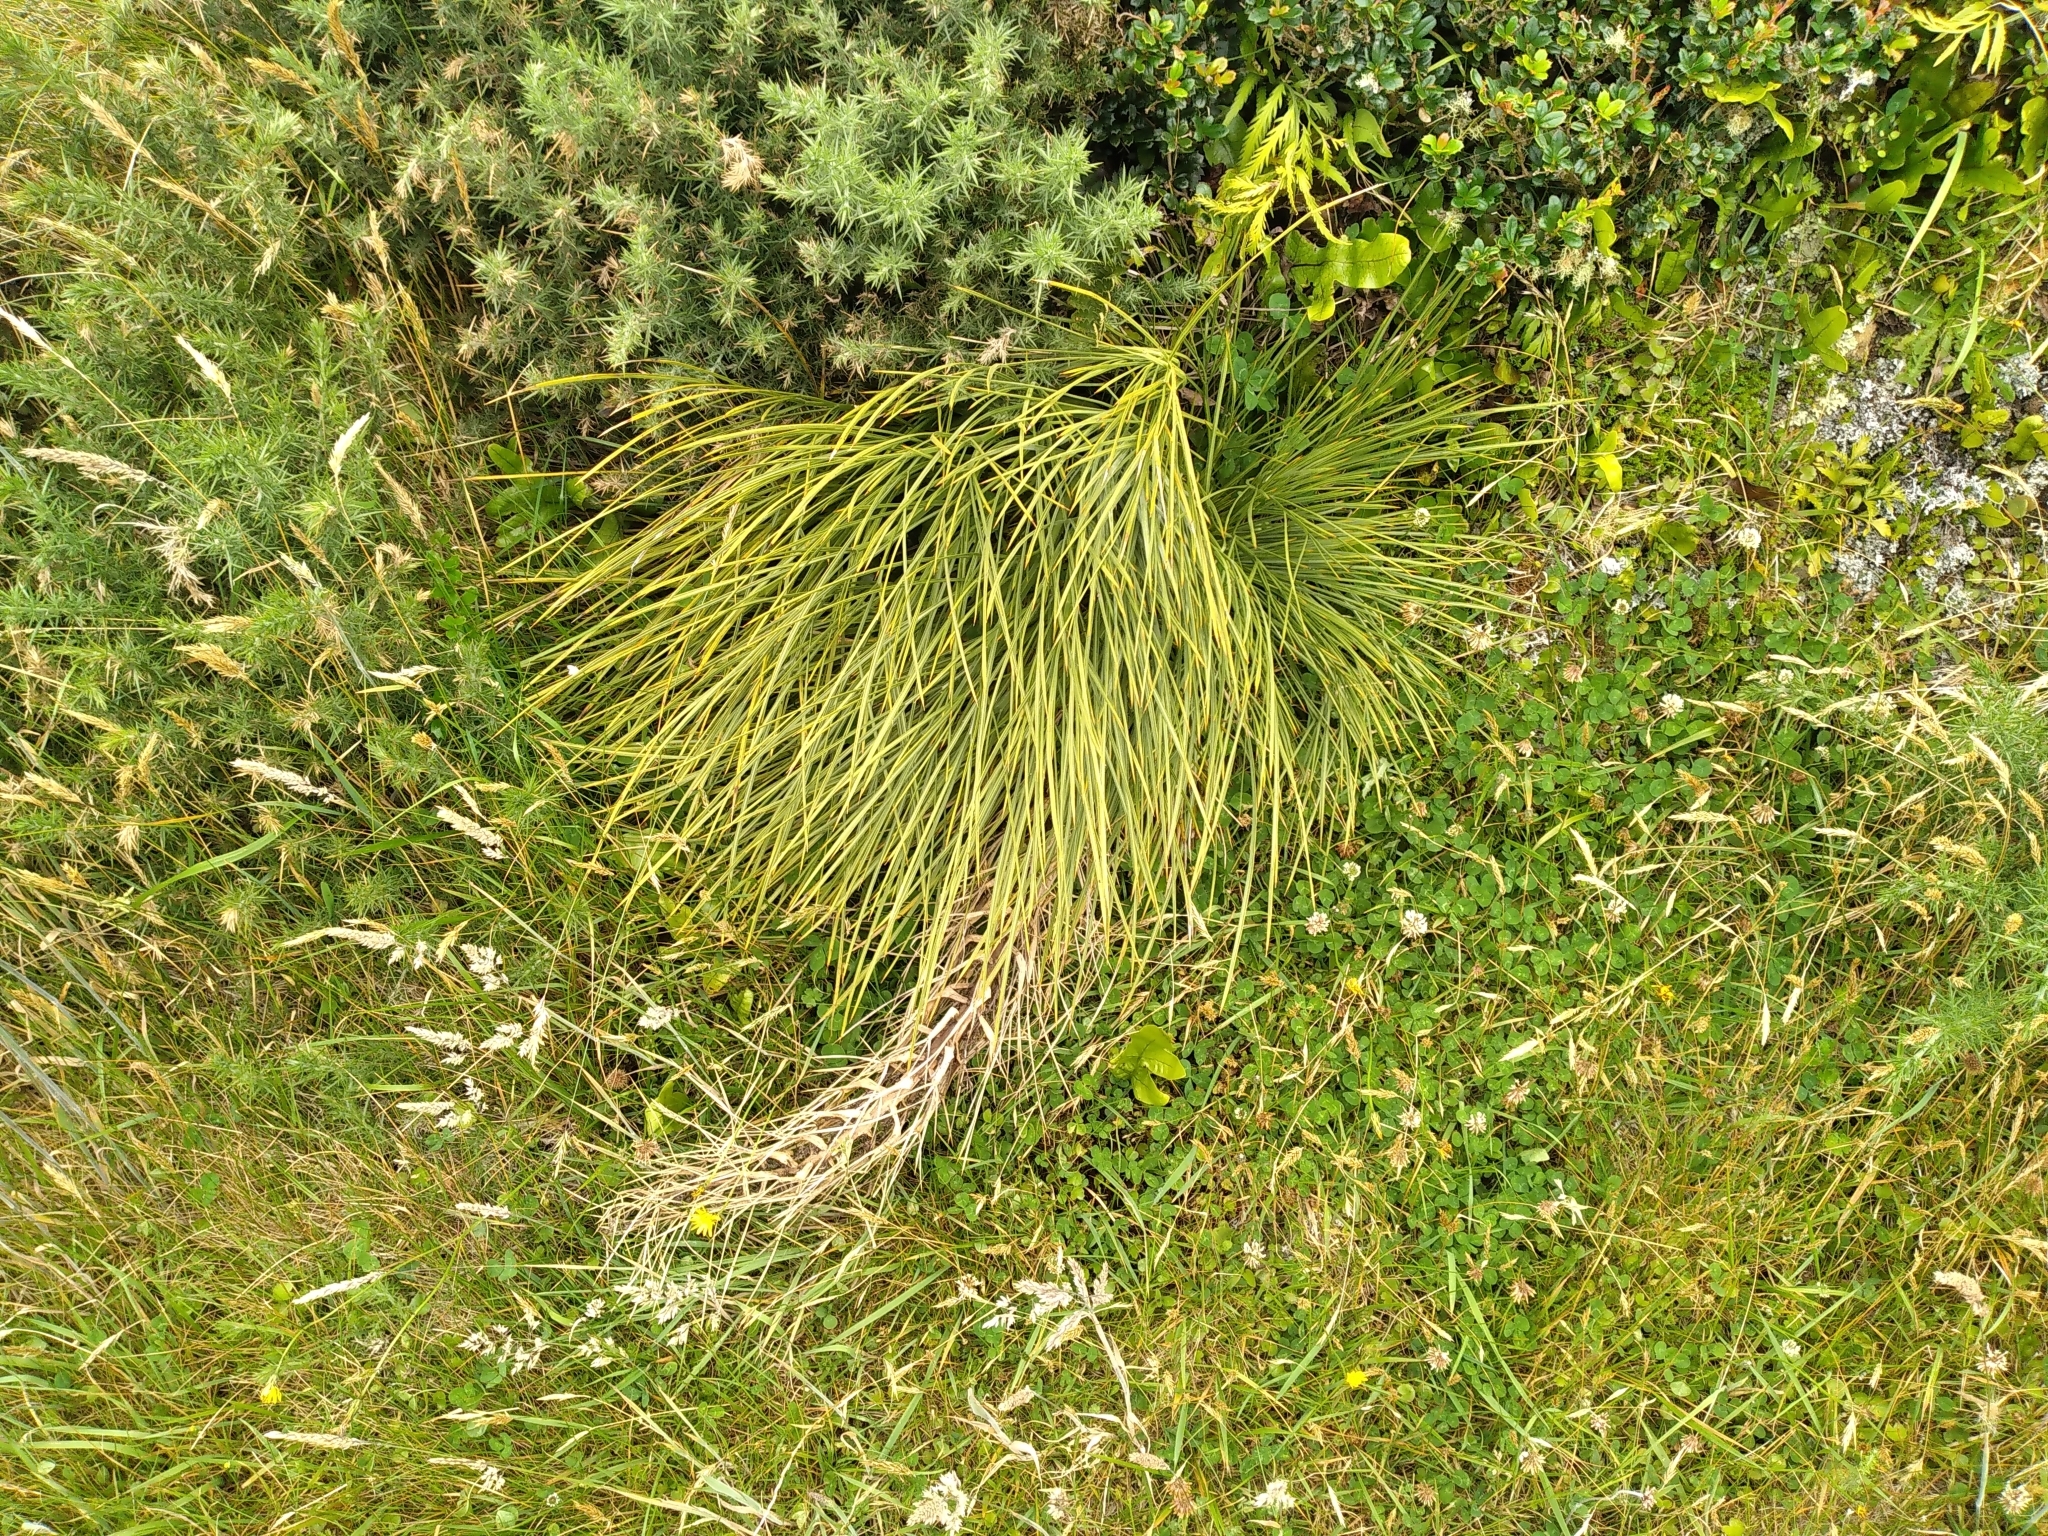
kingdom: Plantae
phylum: Tracheophyta
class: Magnoliopsida
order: Apiales
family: Apiaceae
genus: Aciphylla
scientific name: Aciphylla squarrosa
